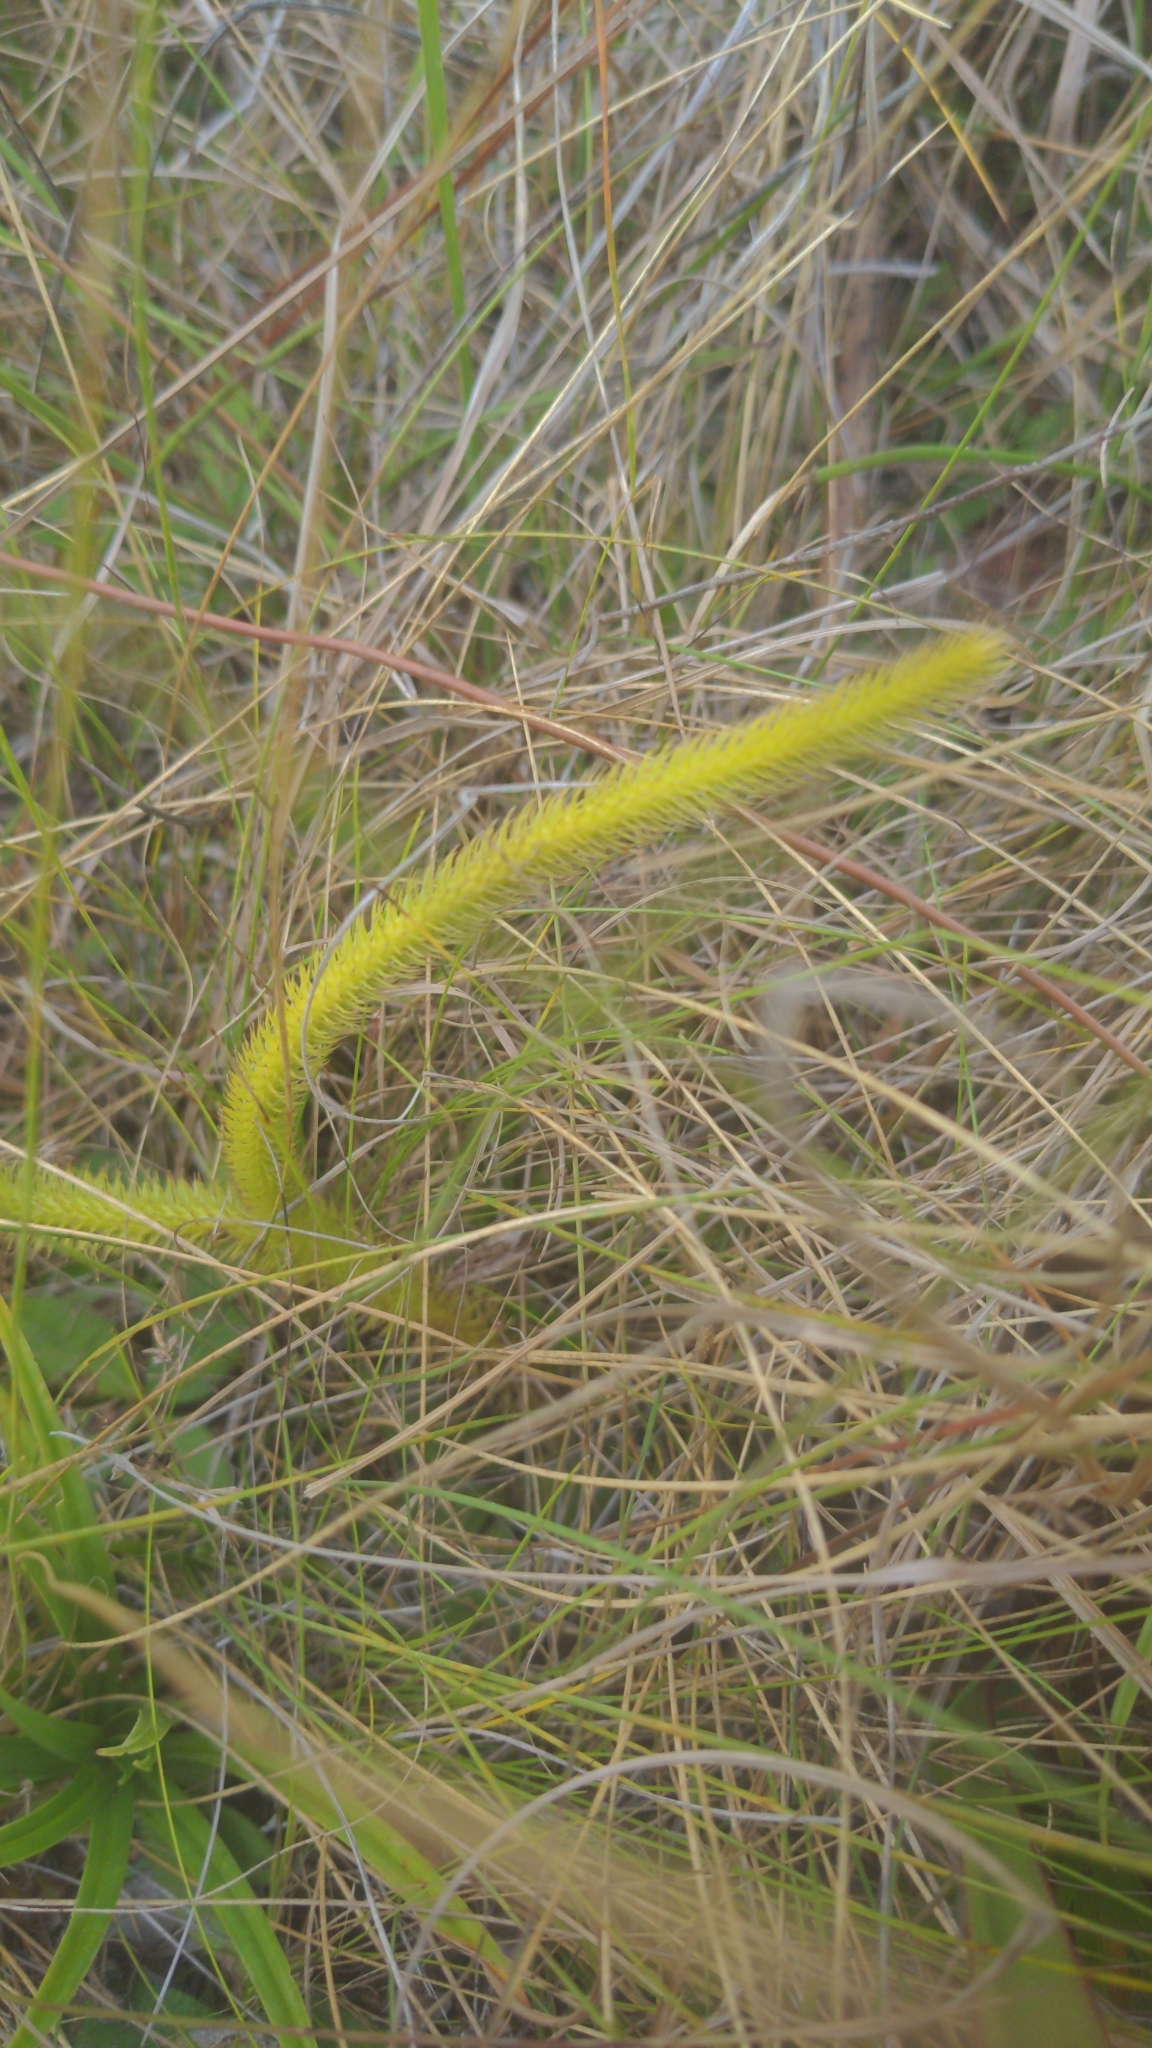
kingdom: Plantae
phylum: Tracheophyta
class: Lycopodiopsida
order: Lycopodiales
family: Lycopodiaceae
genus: Lycopodiella
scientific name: Lycopodiella alopecuroides
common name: Foxtail clubmoss
